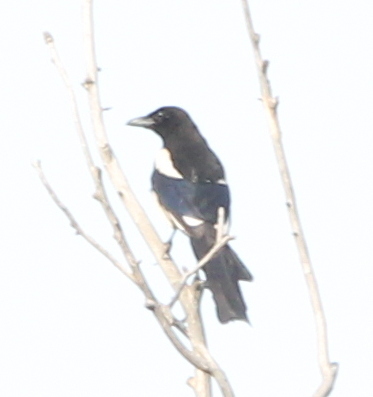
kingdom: Animalia
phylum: Chordata
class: Aves
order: Passeriformes
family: Corvidae
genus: Pica
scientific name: Pica pica
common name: Eurasian magpie
